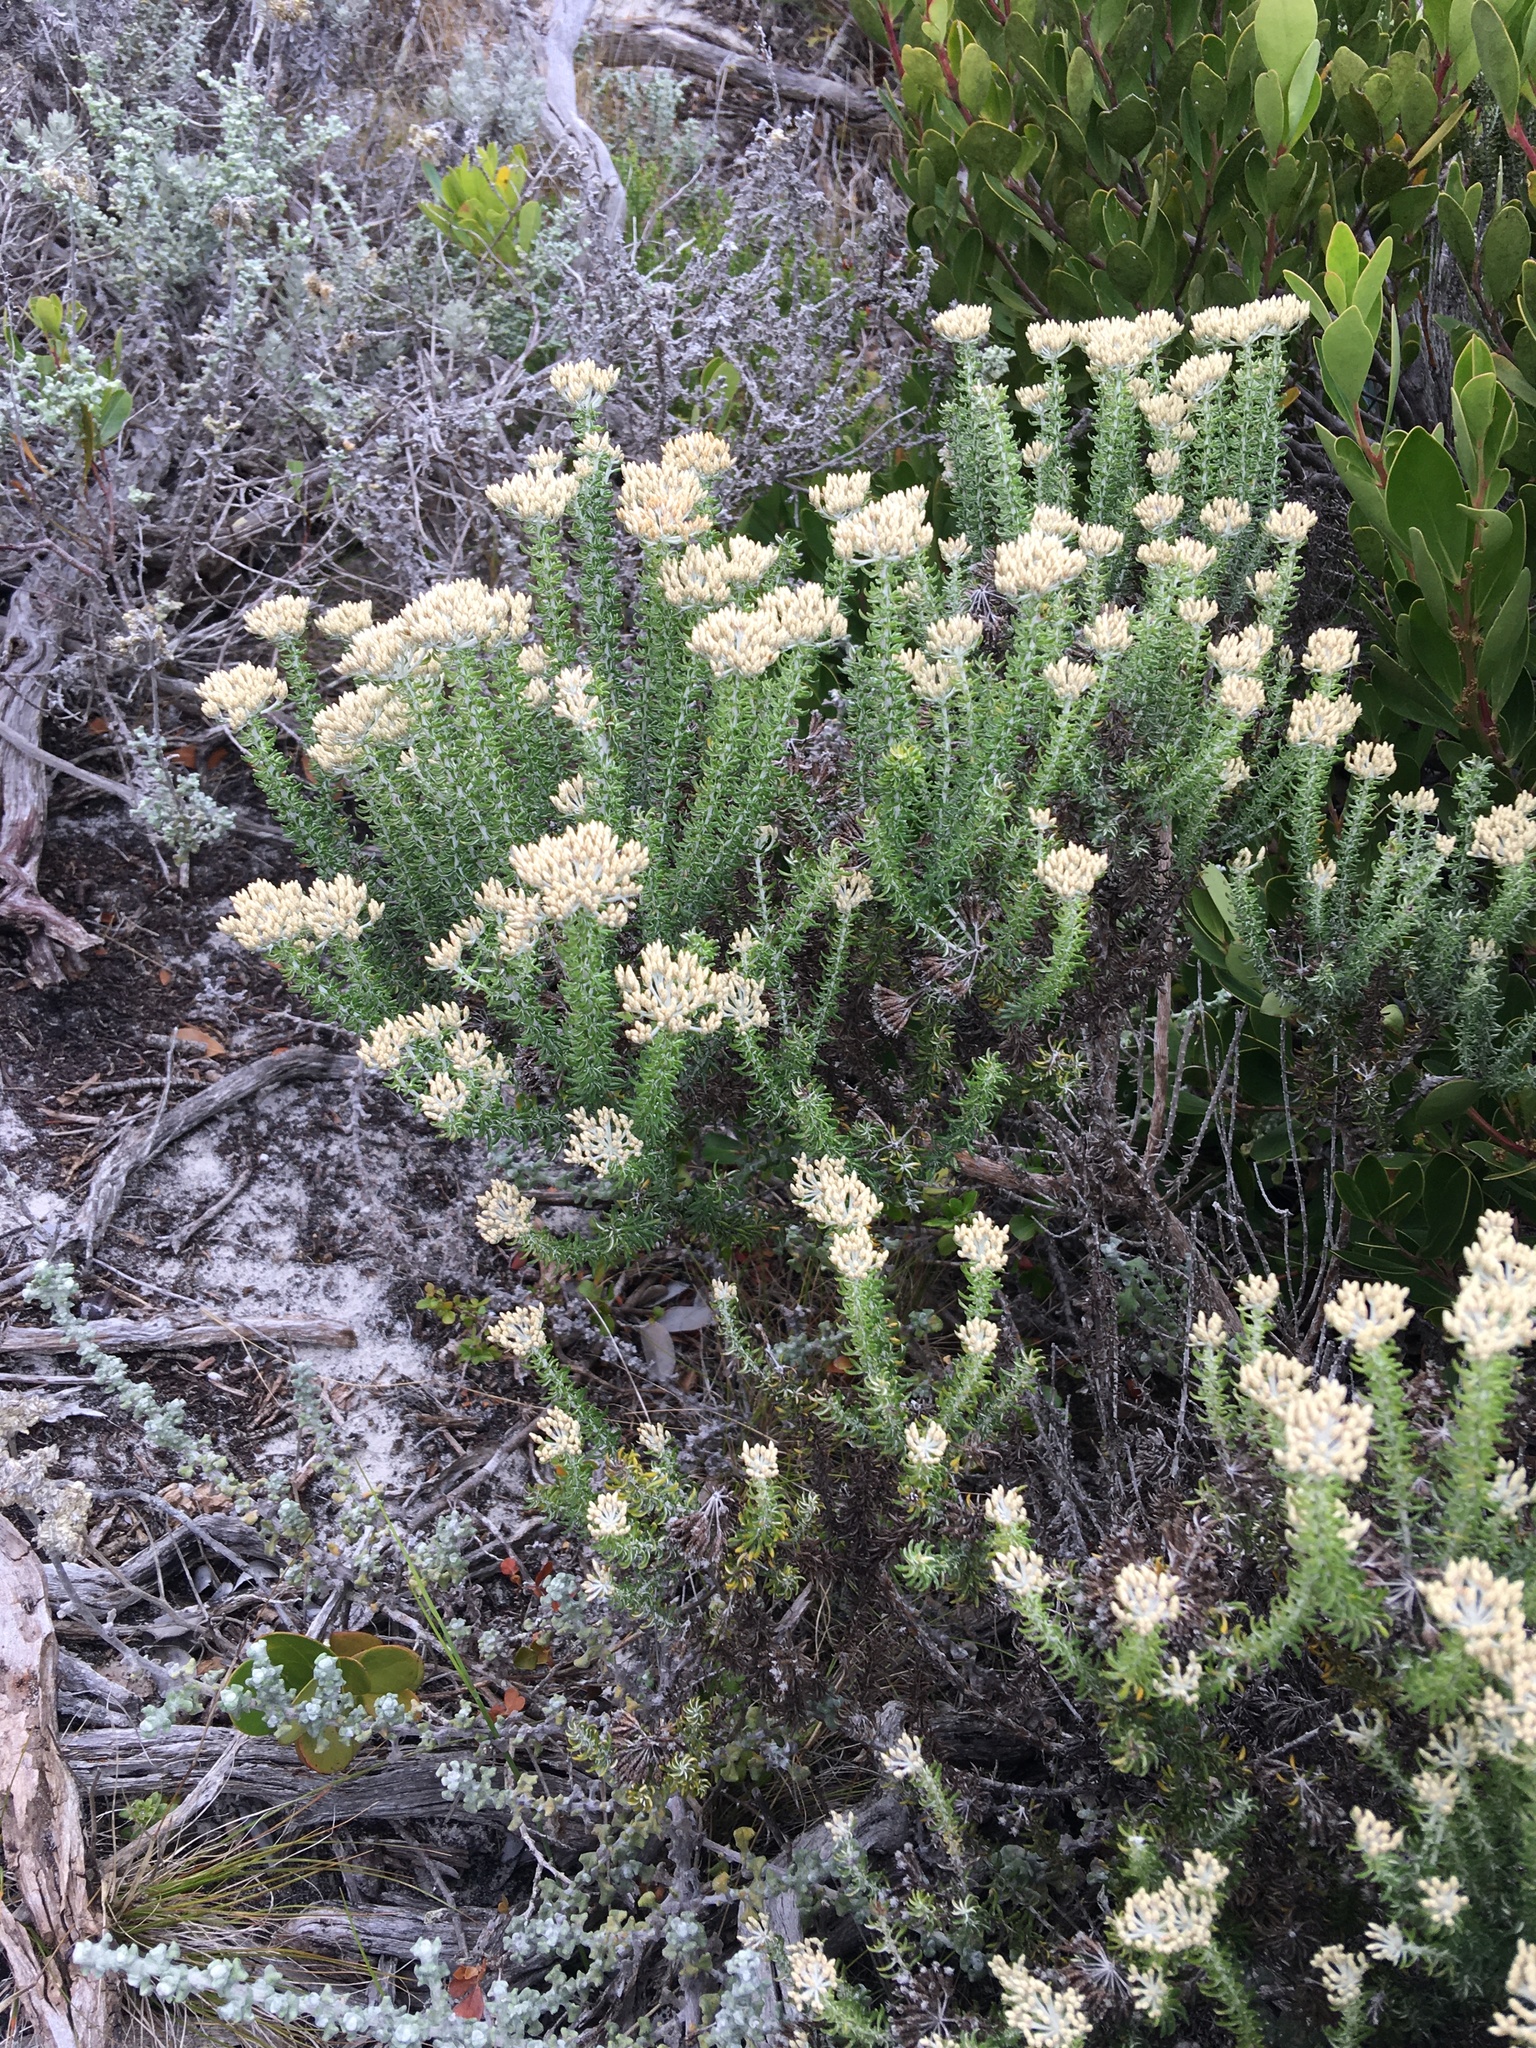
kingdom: Plantae
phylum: Tracheophyta
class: Magnoliopsida
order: Asterales
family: Asteraceae
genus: Metalasia
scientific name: Metalasia muricata
